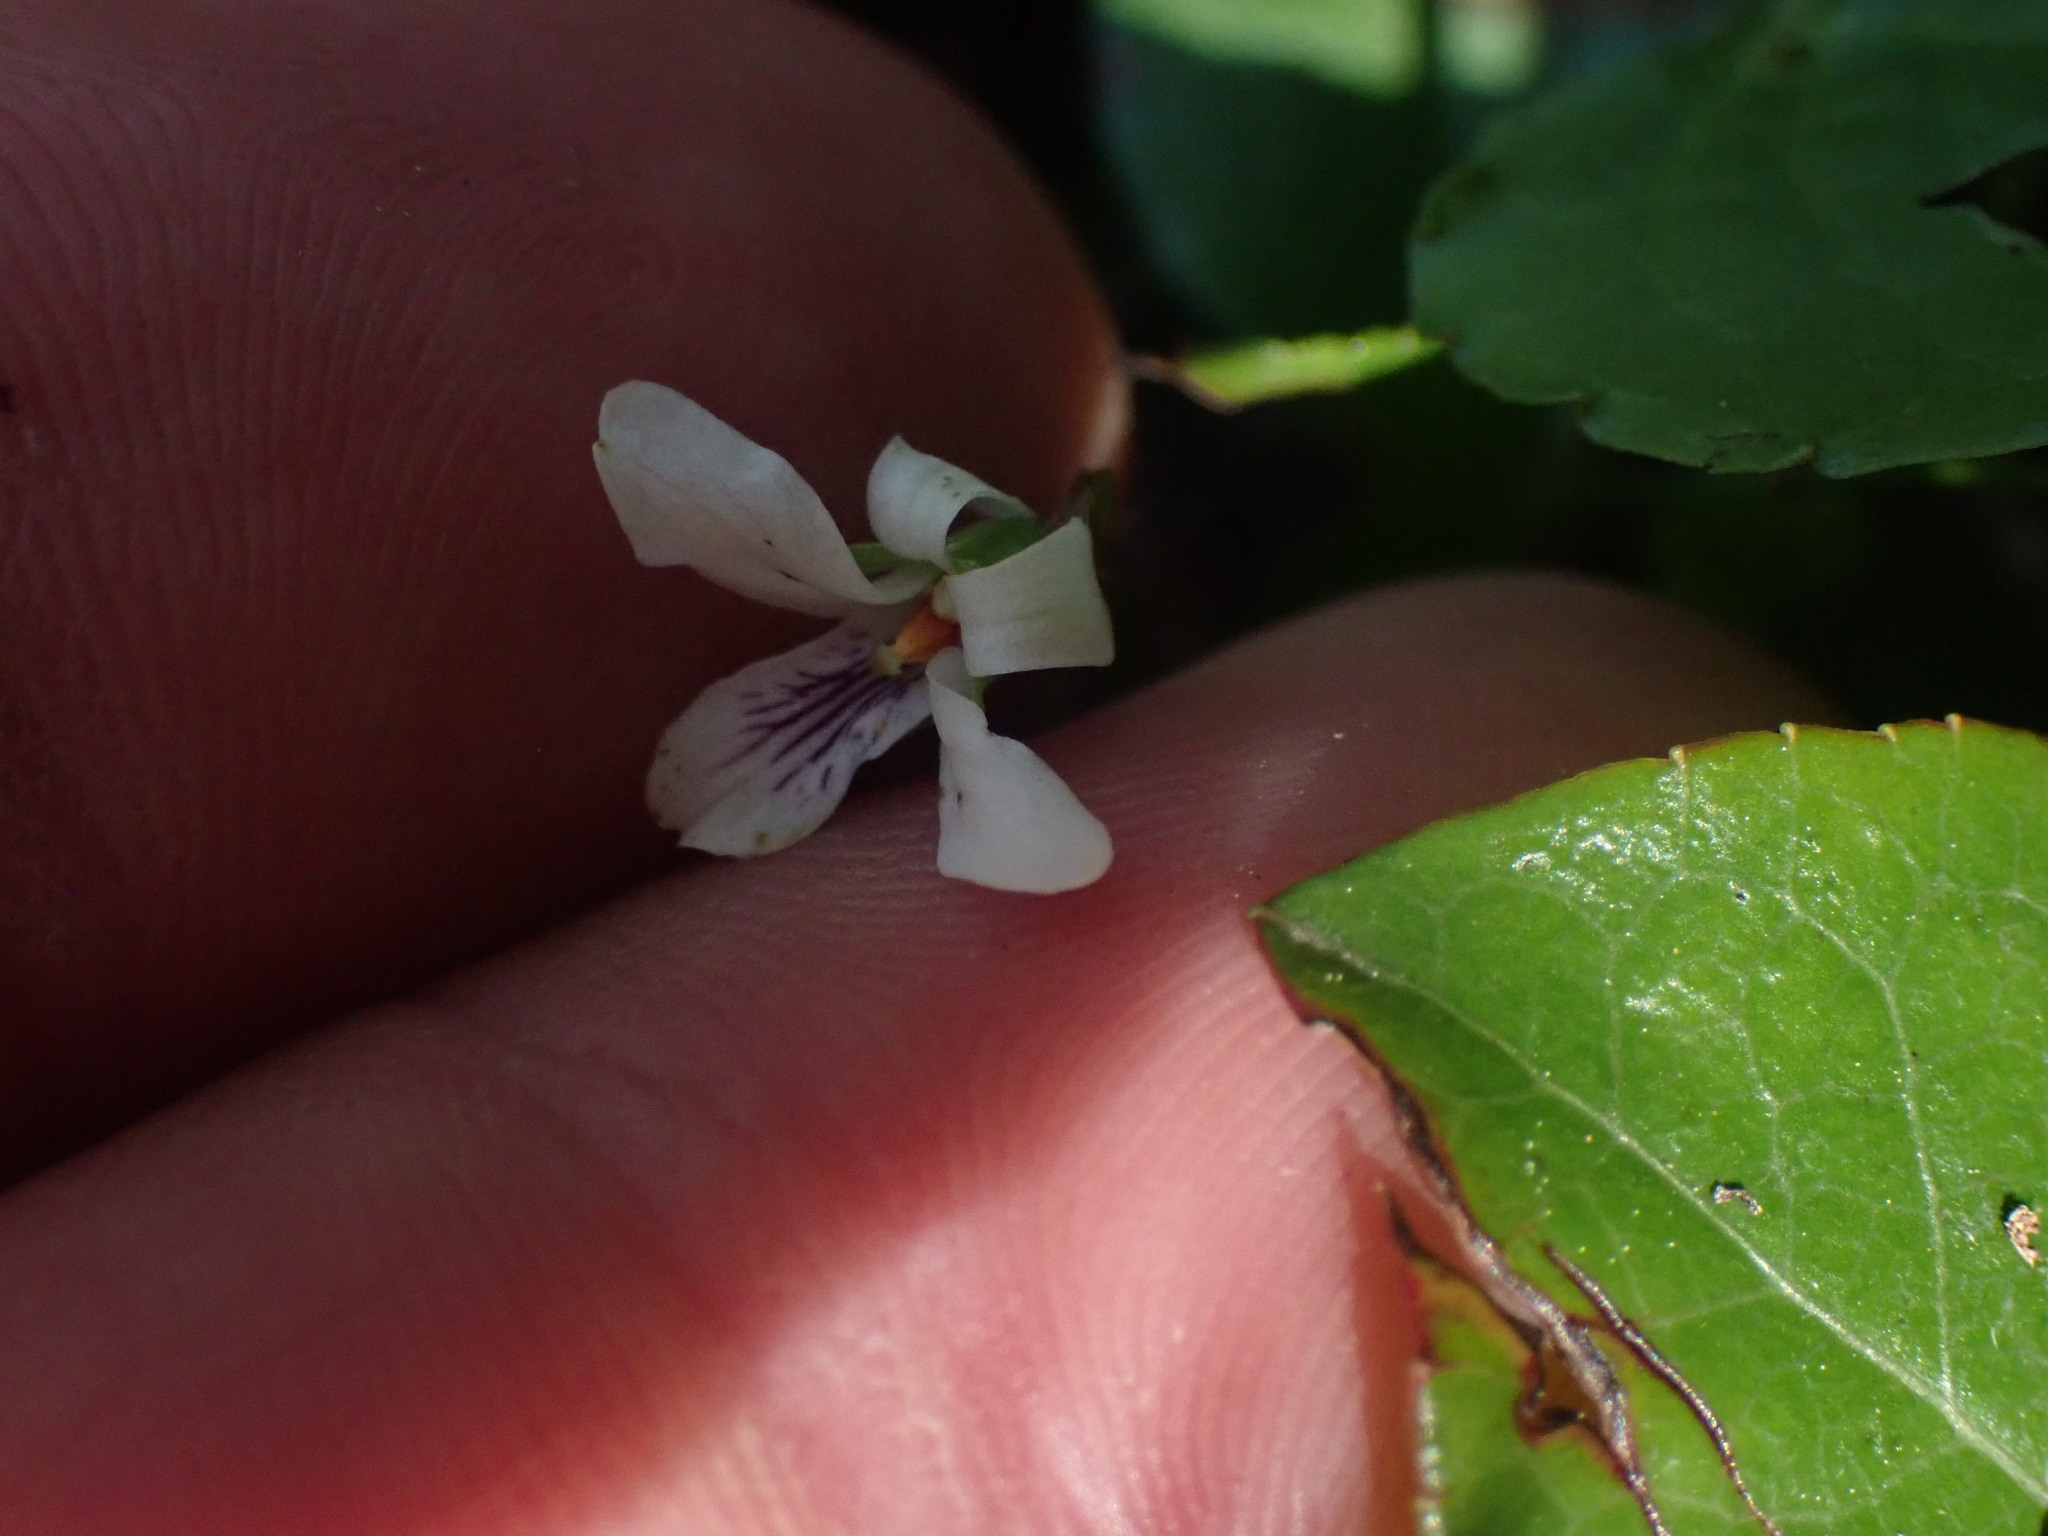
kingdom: Plantae
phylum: Tracheophyta
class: Magnoliopsida
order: Malpighiales
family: Violaceae
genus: Viola
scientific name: Viola renifolia
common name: Kidney-leaf violet
